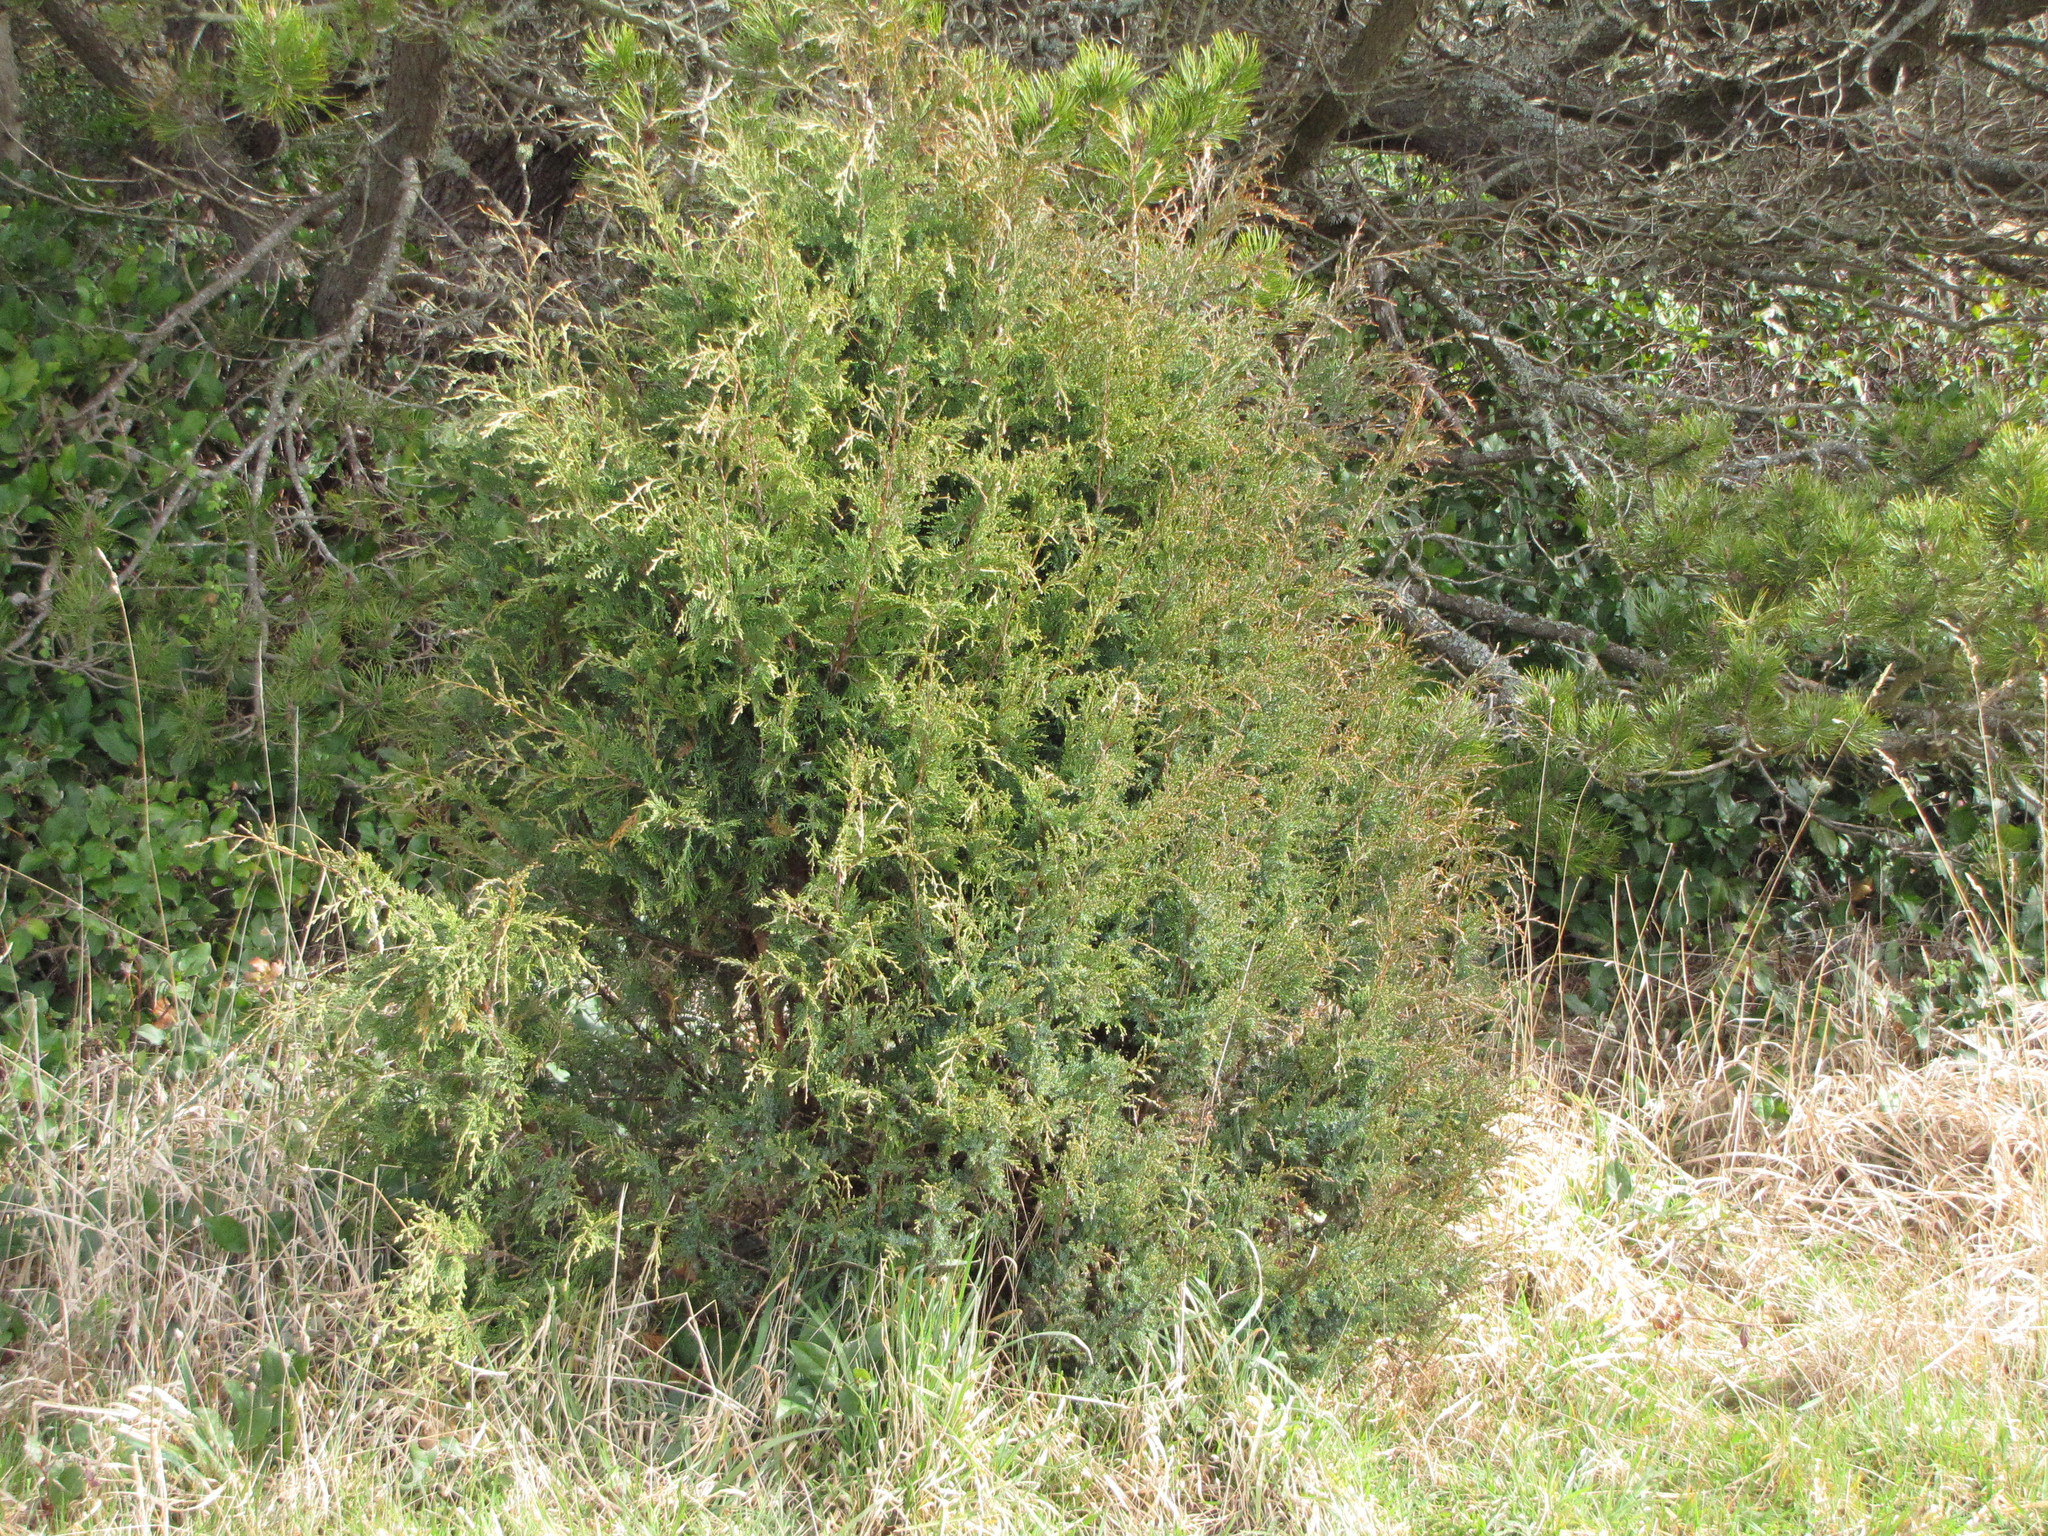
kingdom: Plantae
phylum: Tracheophyta
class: Pinopsida
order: Pinales
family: Cupressaceae
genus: Juniperus
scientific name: Juniperus scopulorum
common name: Rocky mountain juniper
